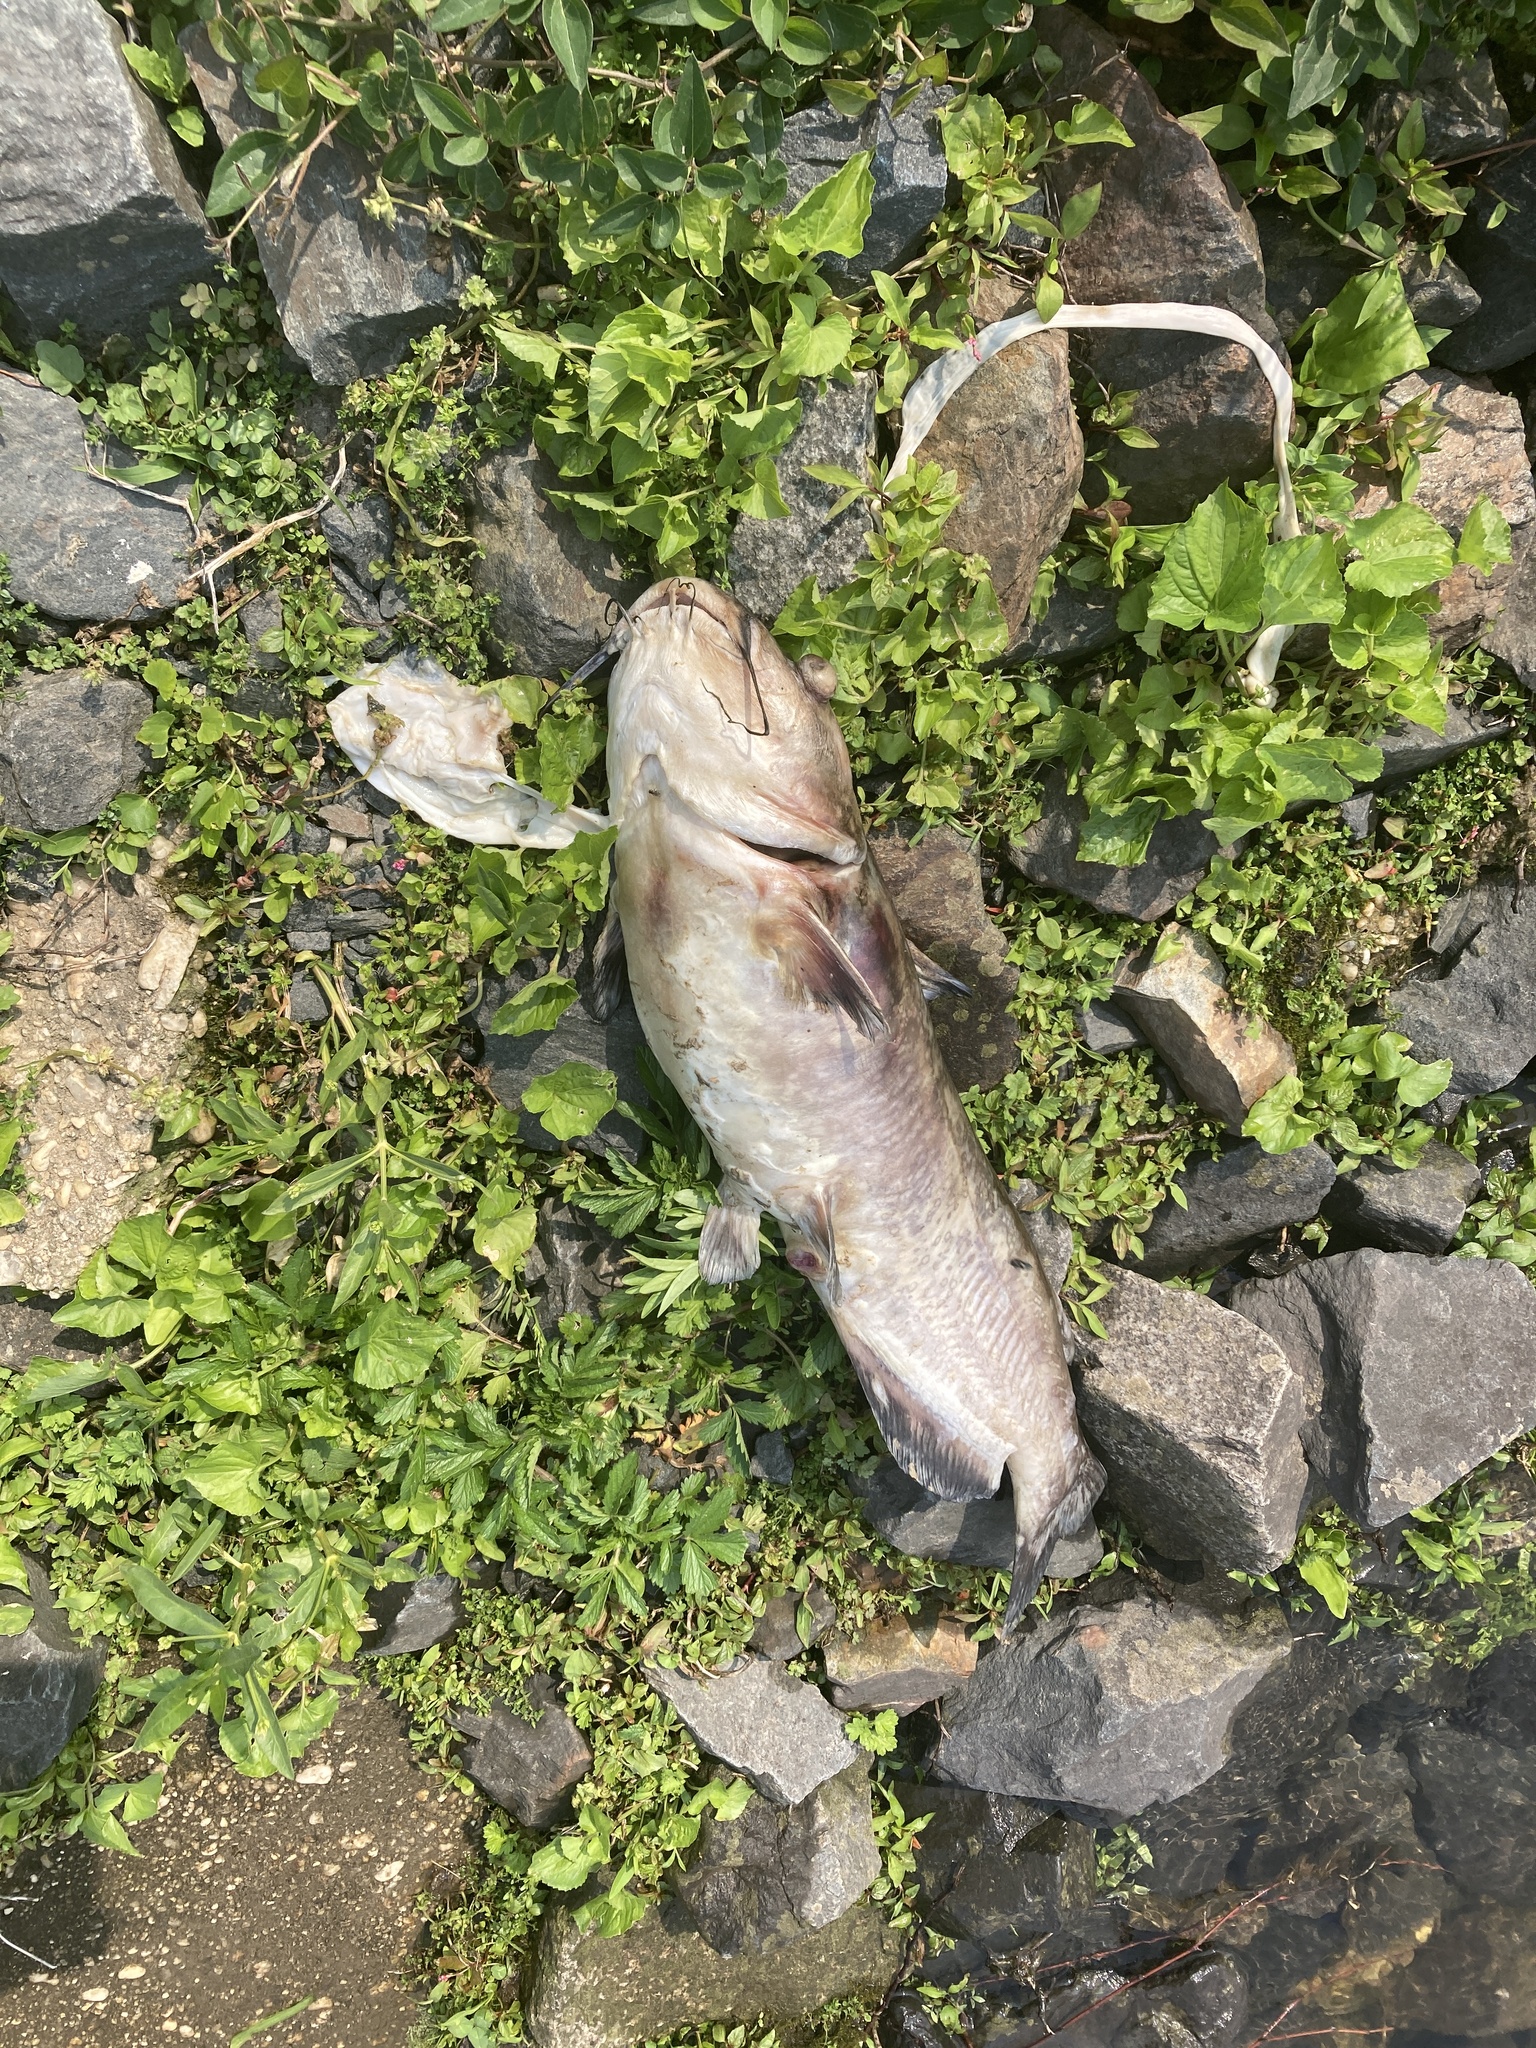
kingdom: Animalia
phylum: Chordata
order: Siluriformes
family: Ictaluridae
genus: Ictalurus
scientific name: Ictalurus punctatus
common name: Channel catfish
